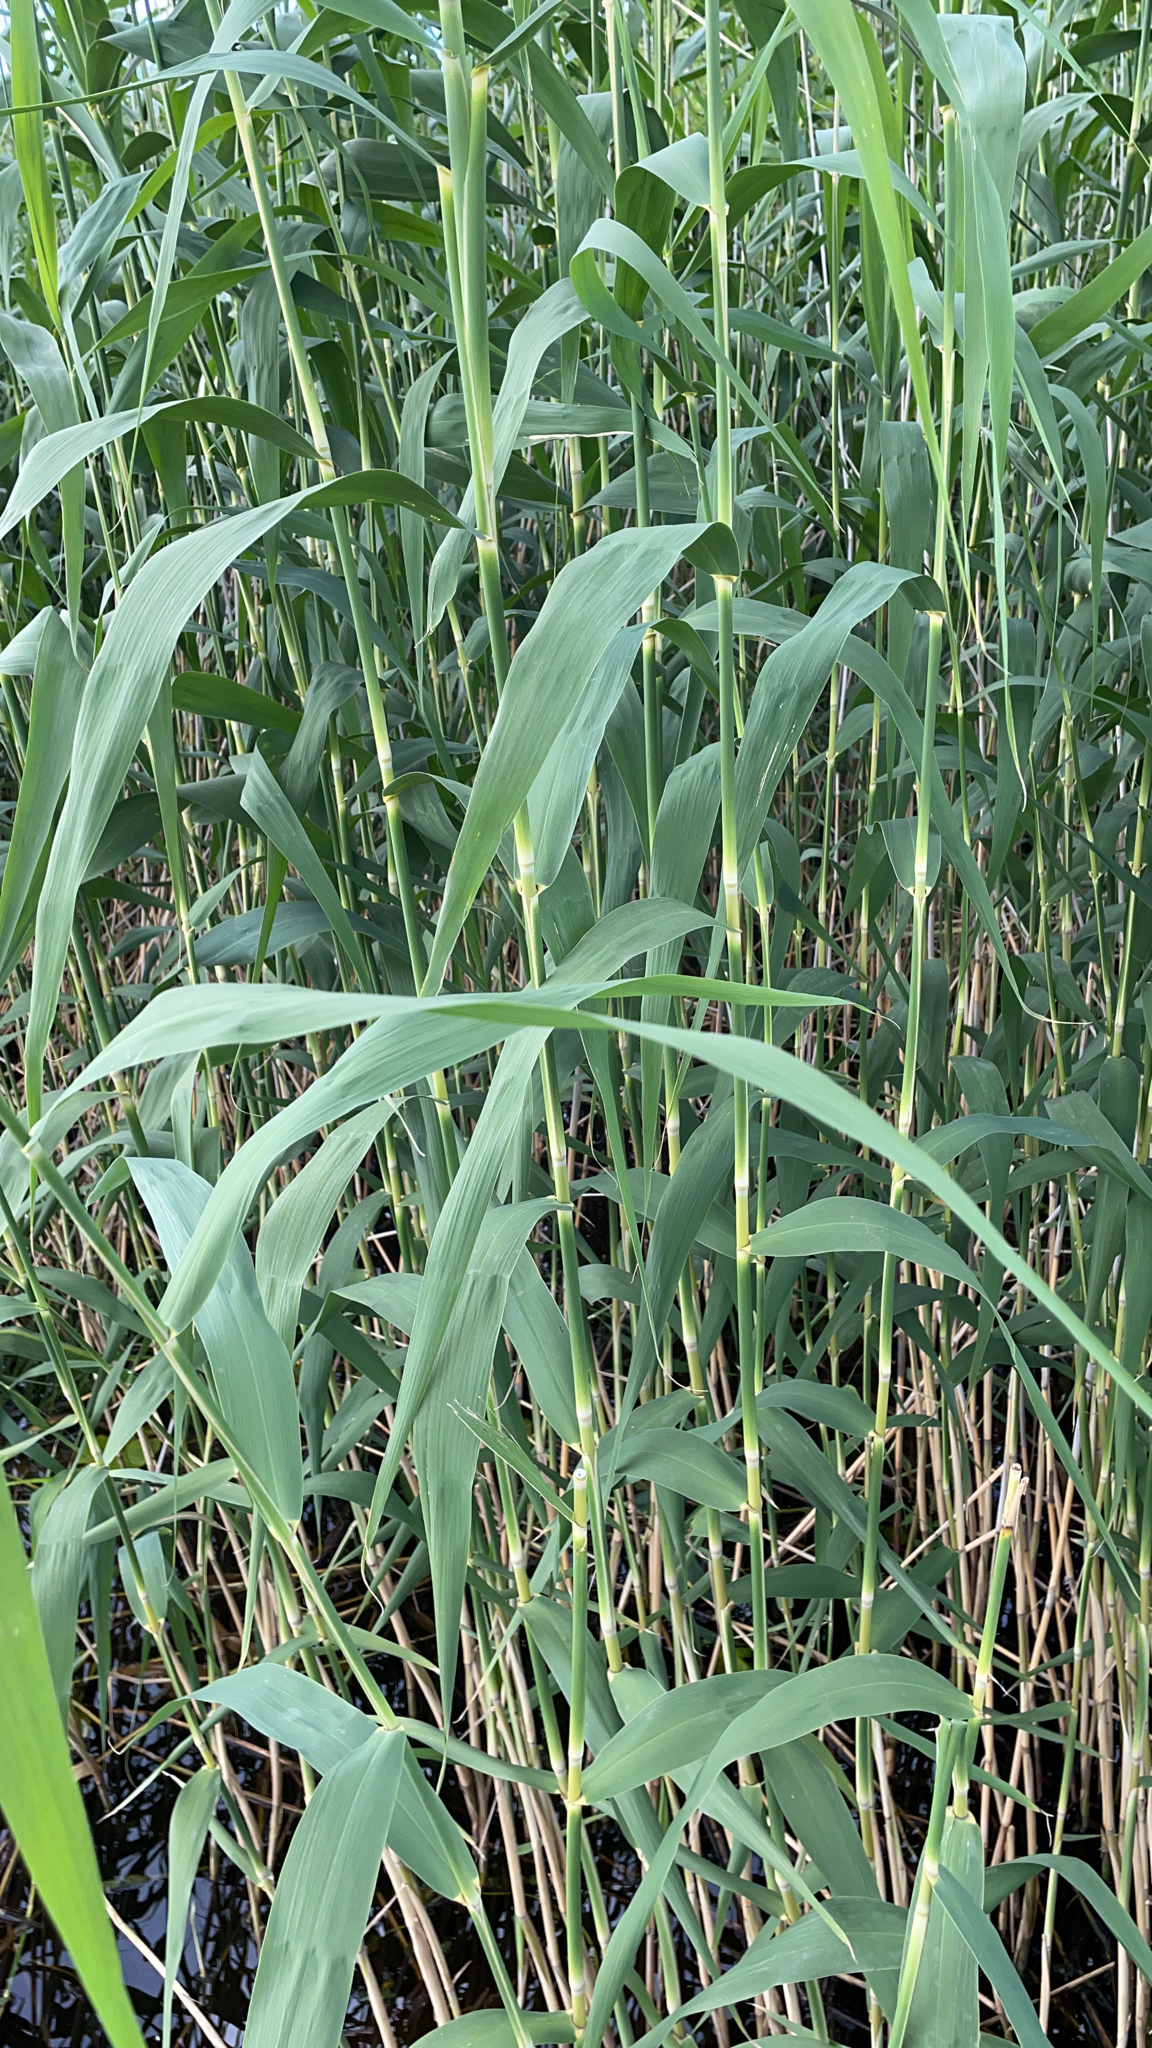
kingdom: Plantae
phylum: Tracheophyta
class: Liliopsida
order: Poales
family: Poaceae
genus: Phragmites
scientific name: Phragmites australis
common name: Common reed
